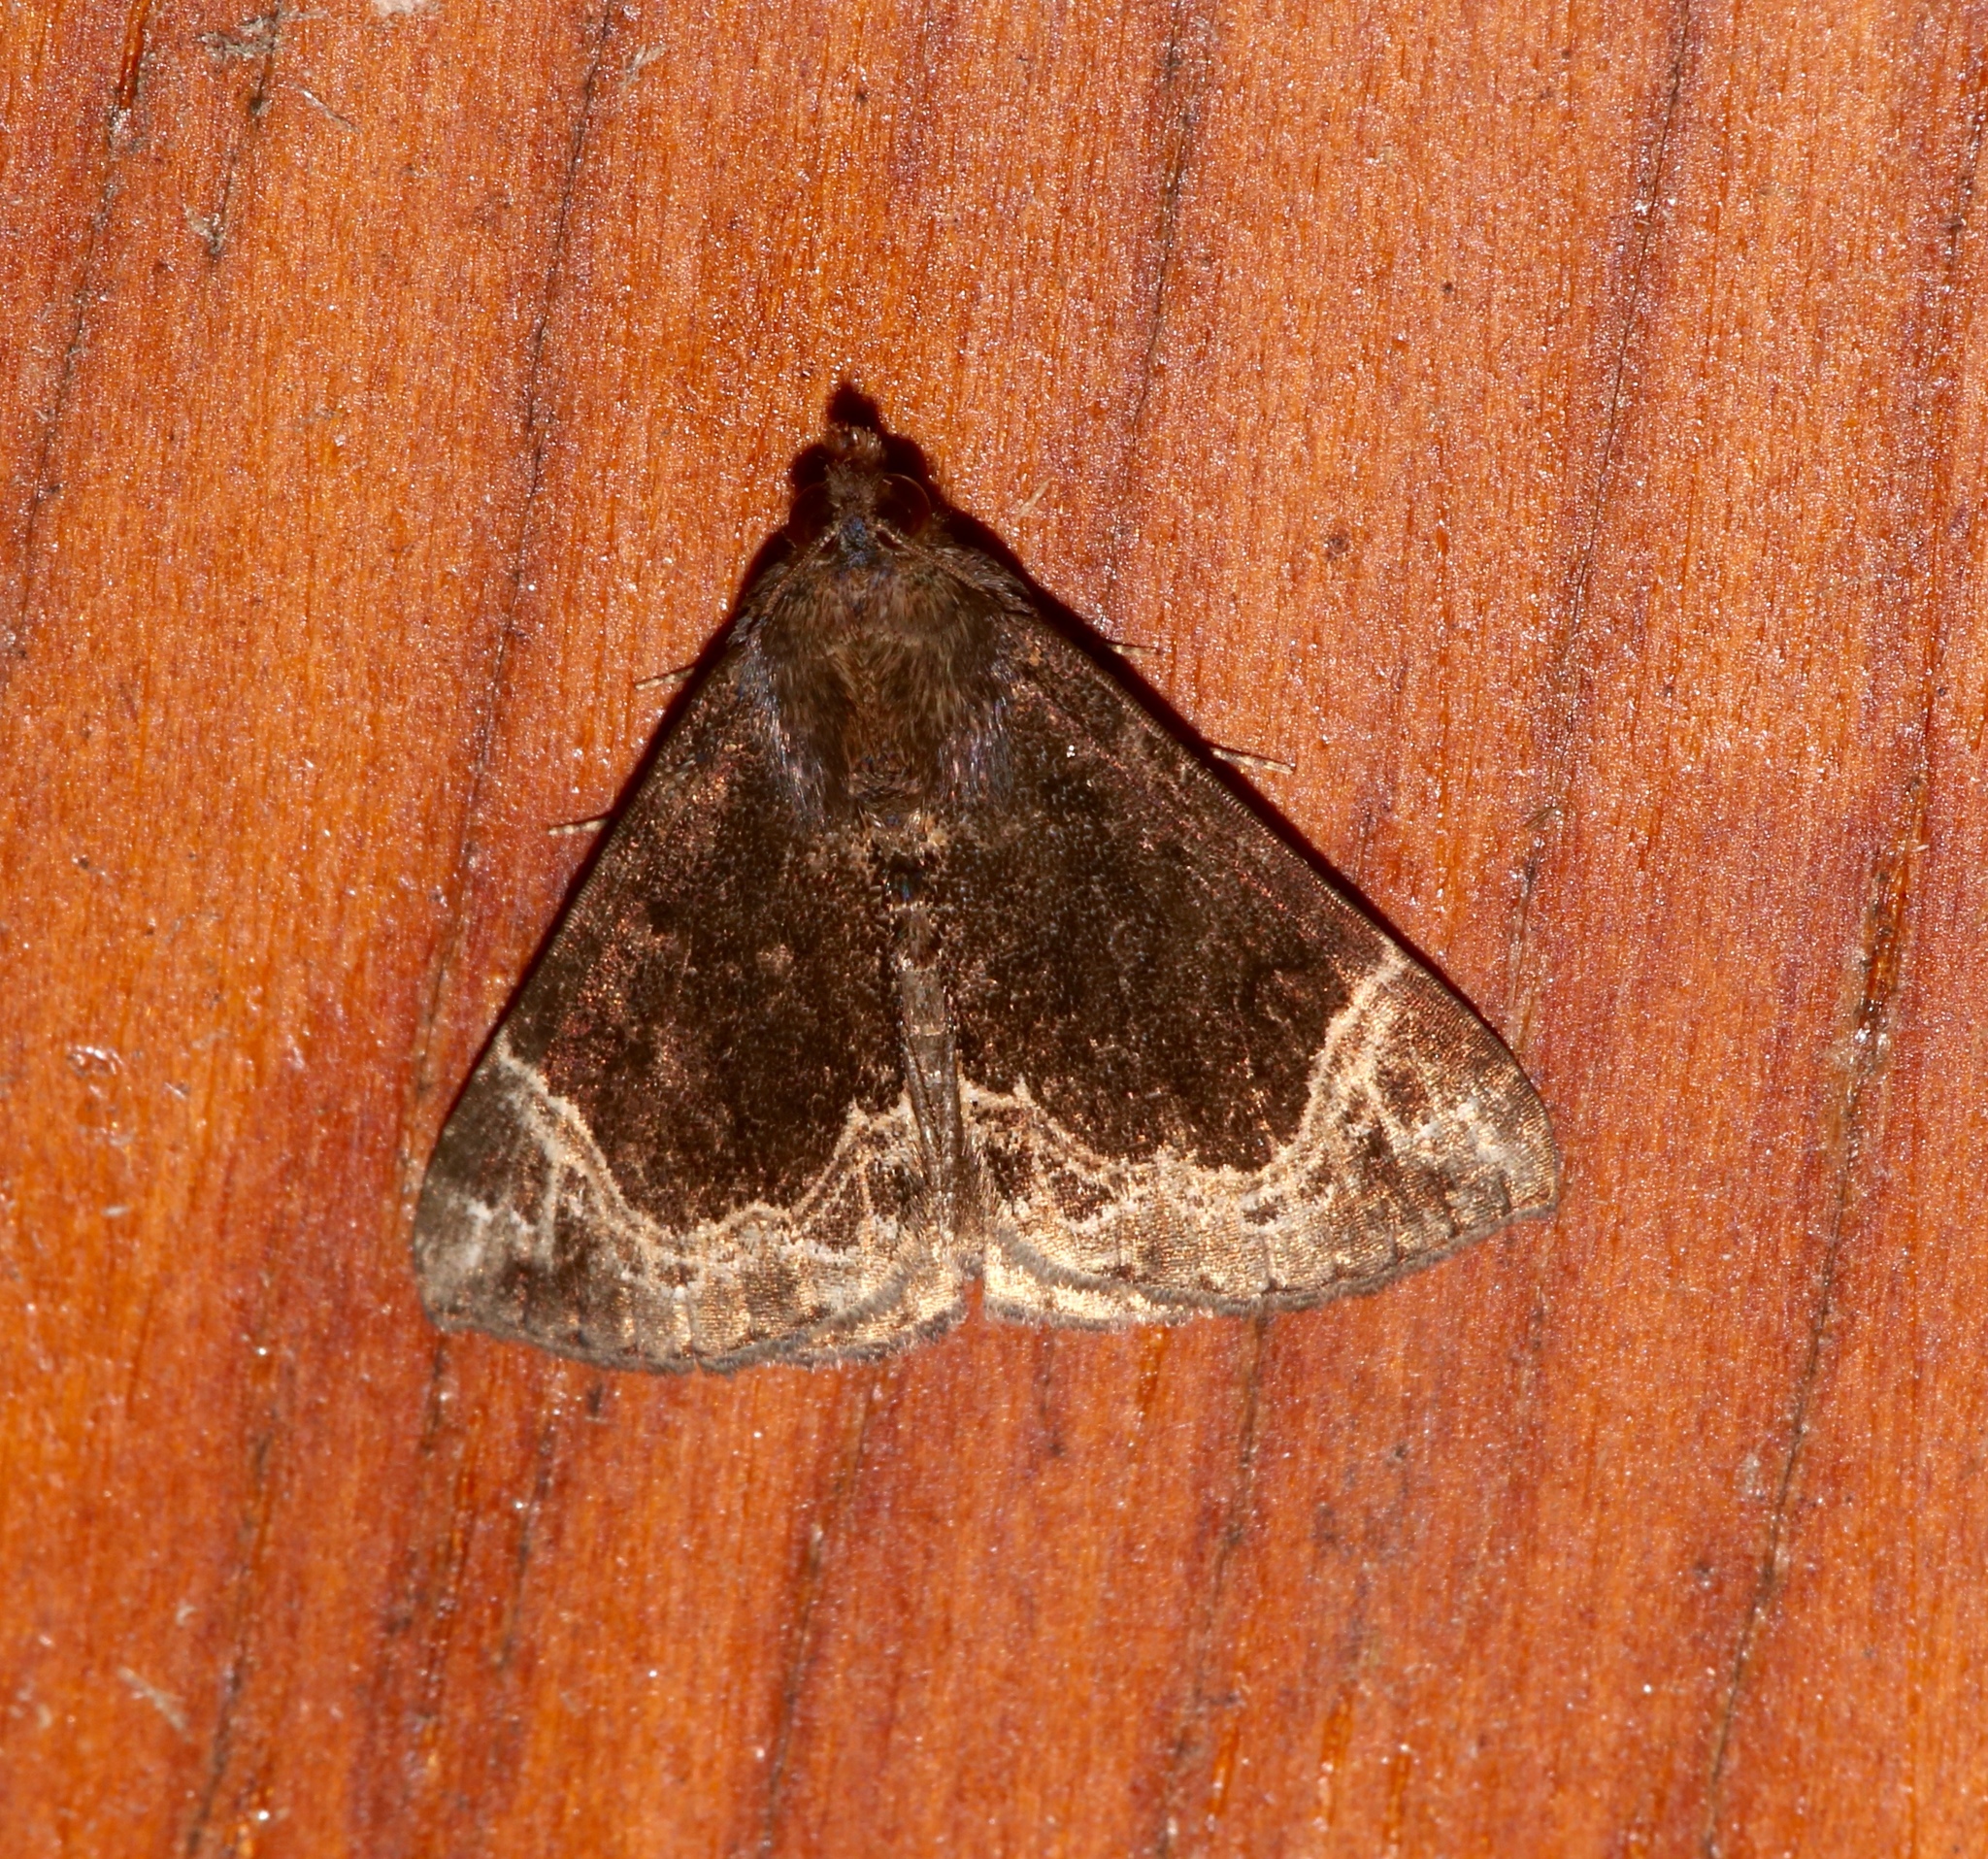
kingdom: Animalia
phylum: Arthropoda
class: Insecta
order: Lepidoptera
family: Erebidae
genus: Hypena
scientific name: Hypena abalienalis
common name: White-lined snout
